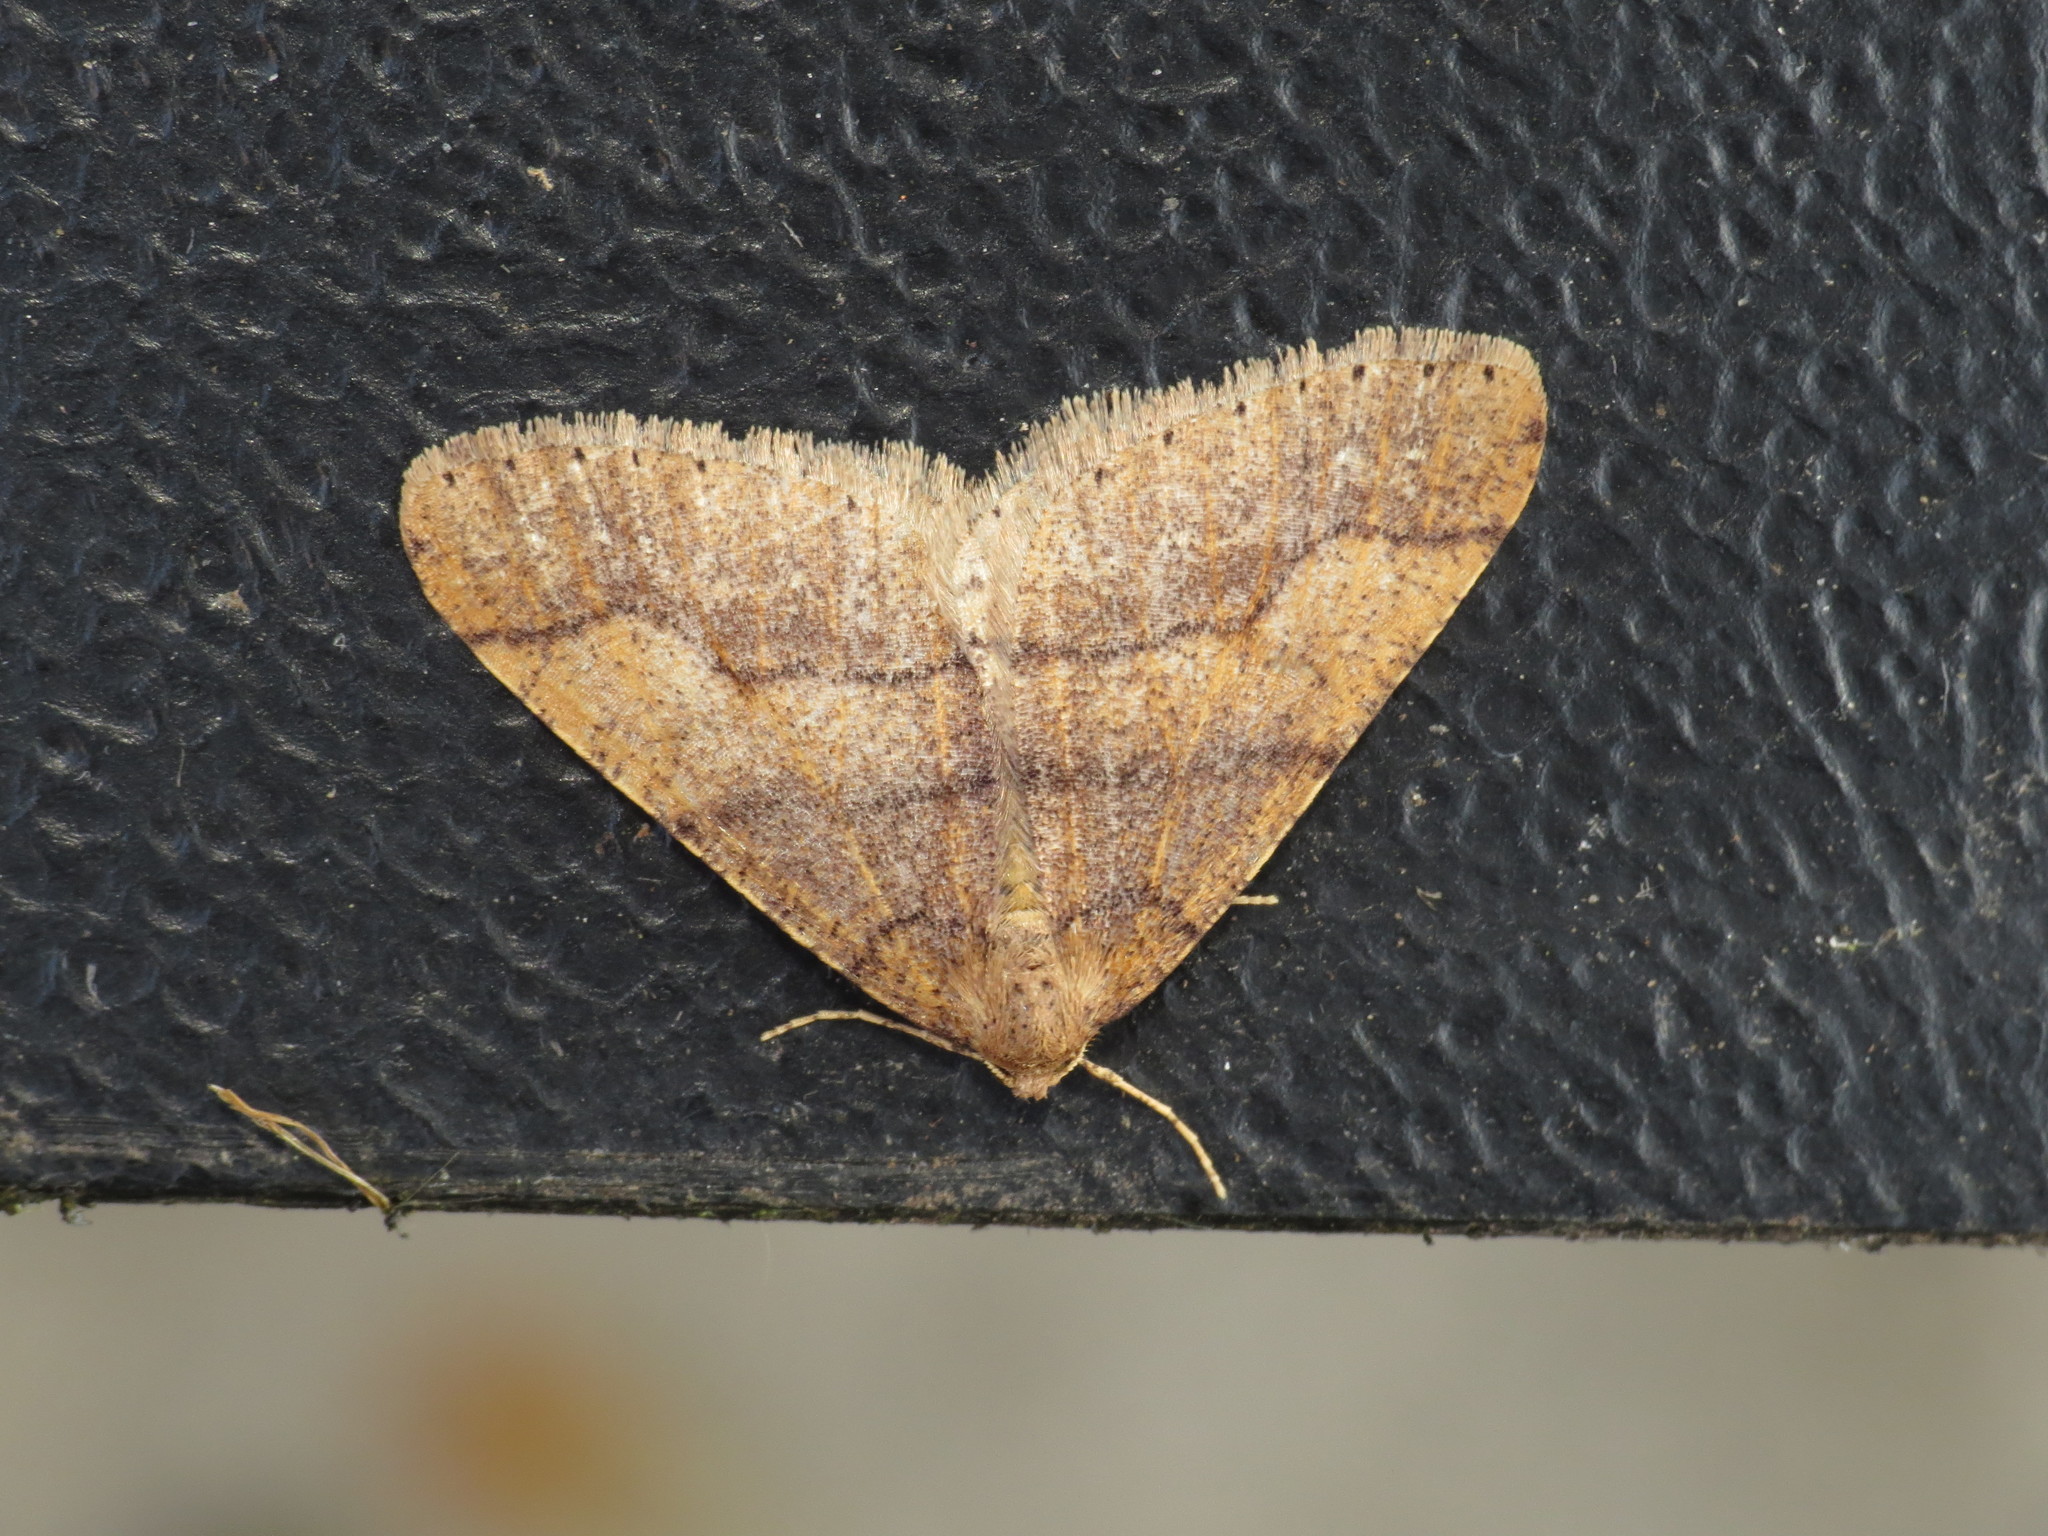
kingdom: Animalia
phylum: Arthropoda
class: Insecta
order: Lepidoptera
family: Geometridae
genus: Agriopis
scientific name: Agriopis marginaria
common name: Dotted border
